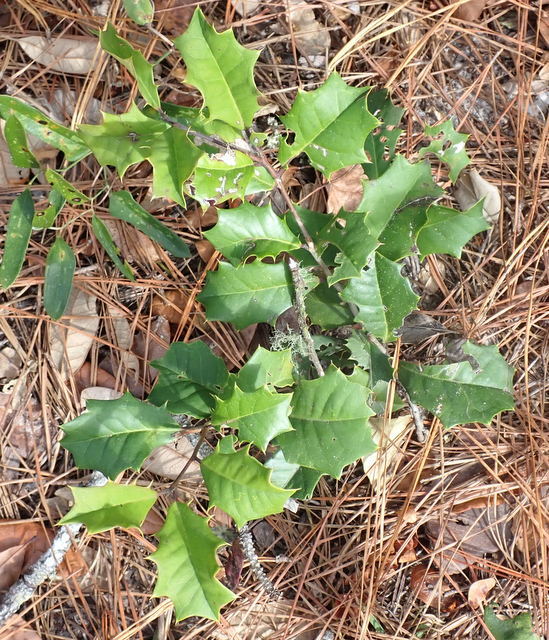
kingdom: Plantae
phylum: Tracheophyta
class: Magnoliopsida
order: Aquifoliales
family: Aquifoliaceae
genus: Ilex
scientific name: Ilex opaca
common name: American holly
